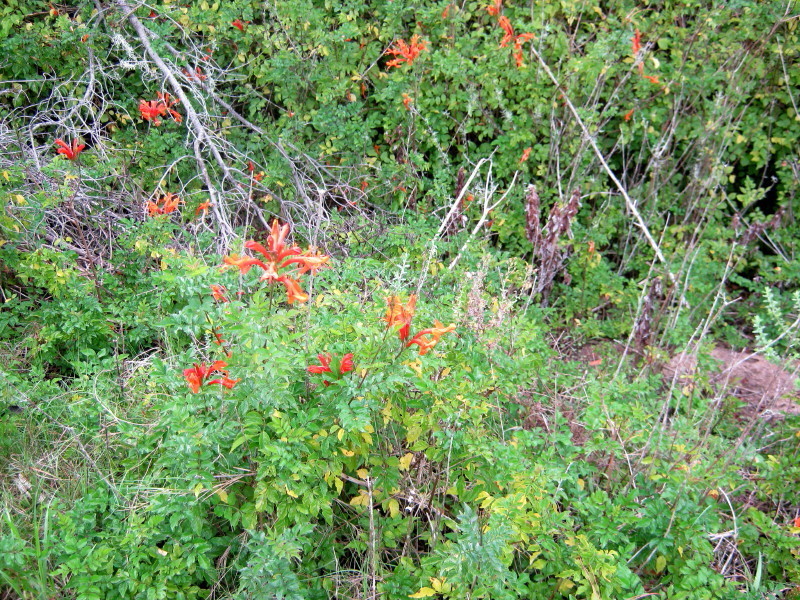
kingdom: Plantae
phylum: Tracheophyta
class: Magnoliopsida
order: Lamiales
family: Bignoniaceae
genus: Tecomaria
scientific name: Tecomaria capensis
